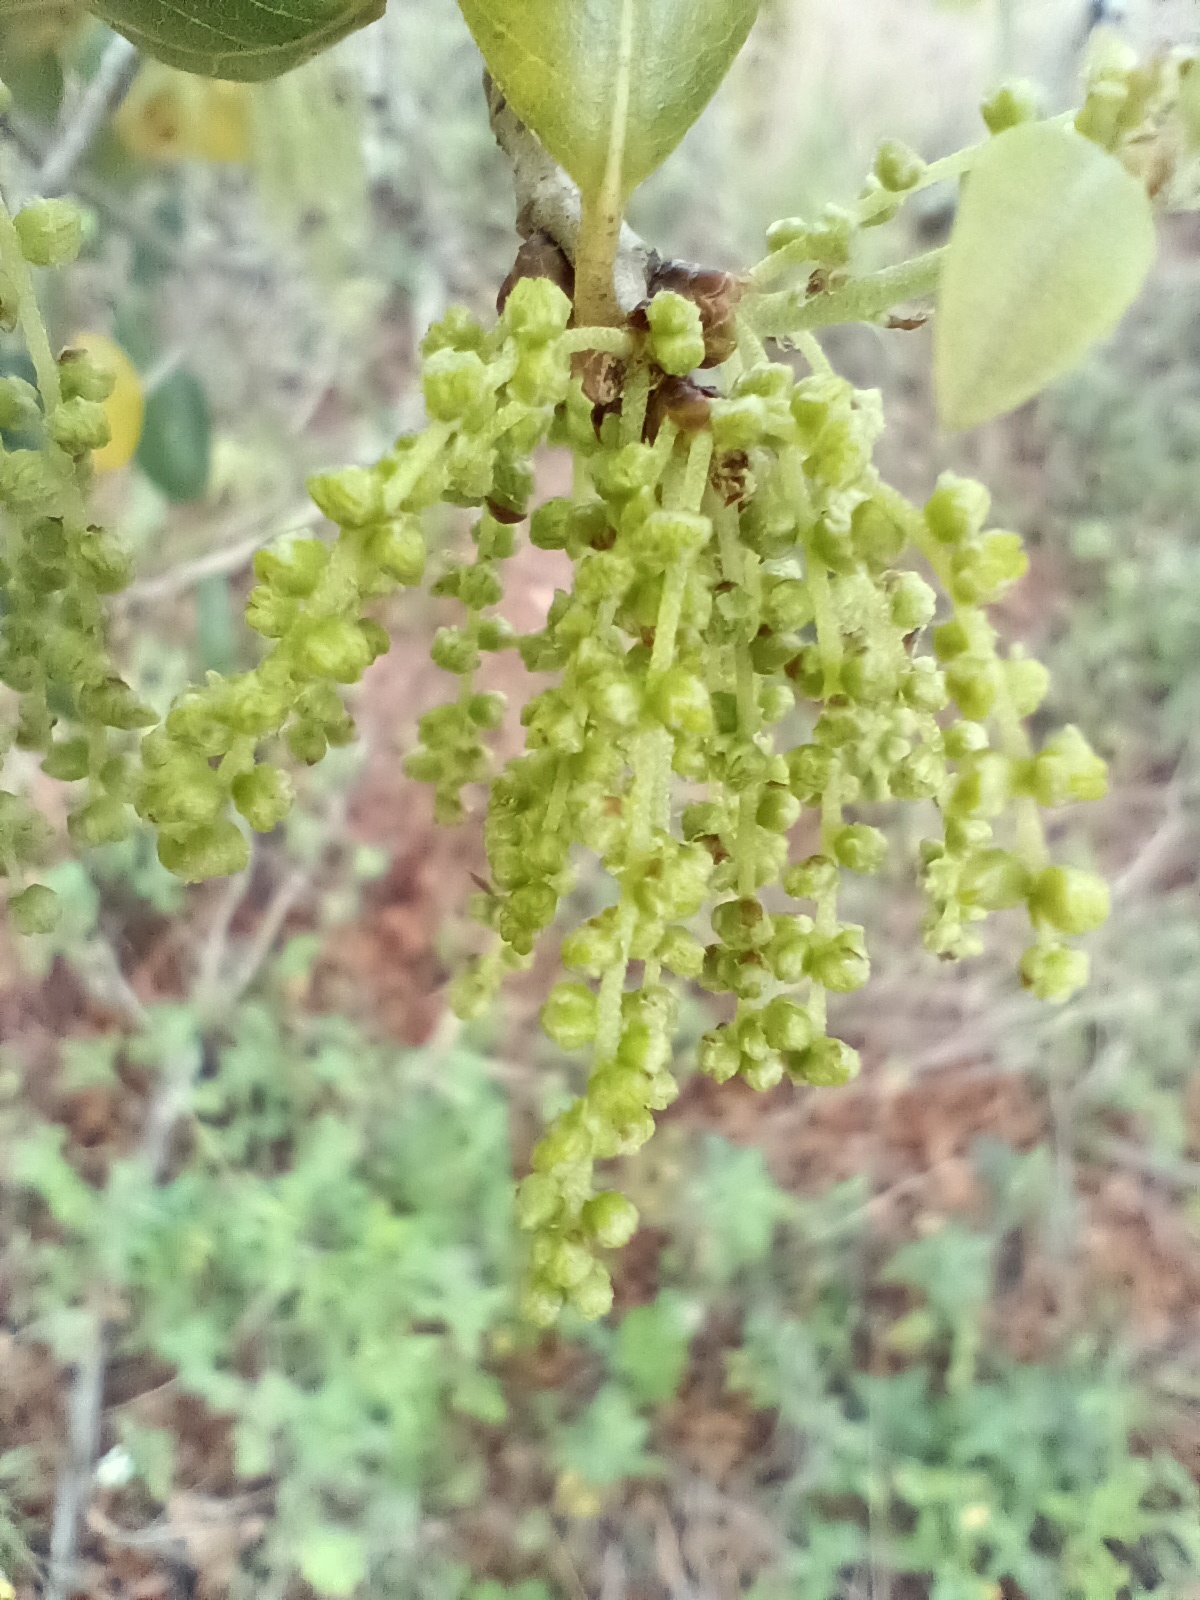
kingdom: Plantae
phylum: Tracheophyta
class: Magnoliopsida
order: Fagales
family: Fagaceae
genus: Quercus
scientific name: Quercus virginiana
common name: Southern live oak
